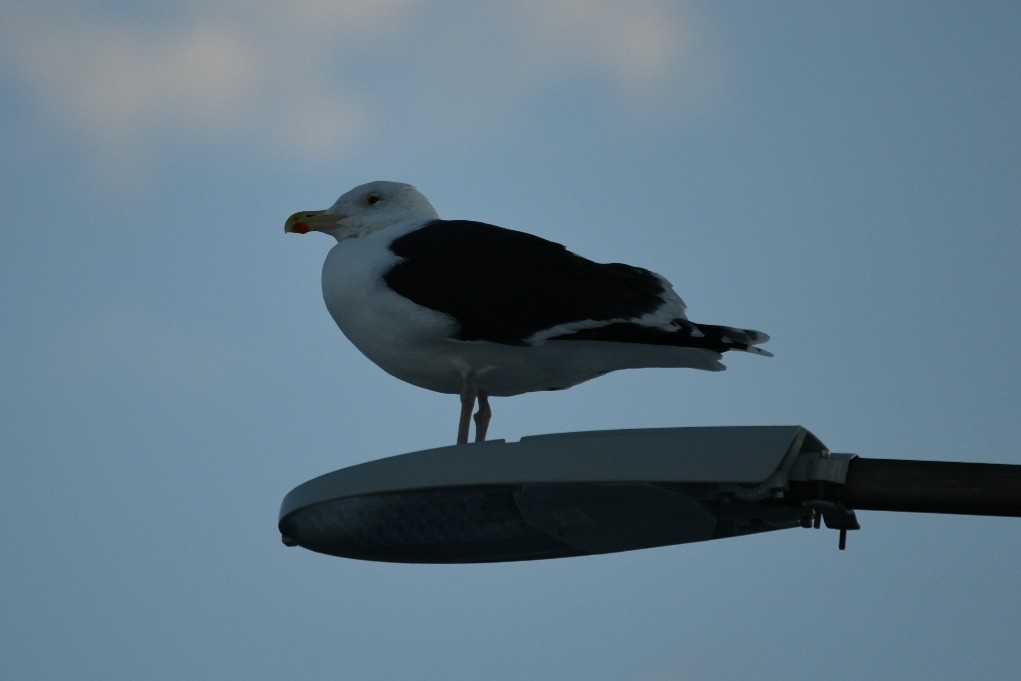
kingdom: Animalia
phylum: Chordata
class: Aves
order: Charadriiformes
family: Laridae
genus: Larus
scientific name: Larus marinus
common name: Great black-backed gull
